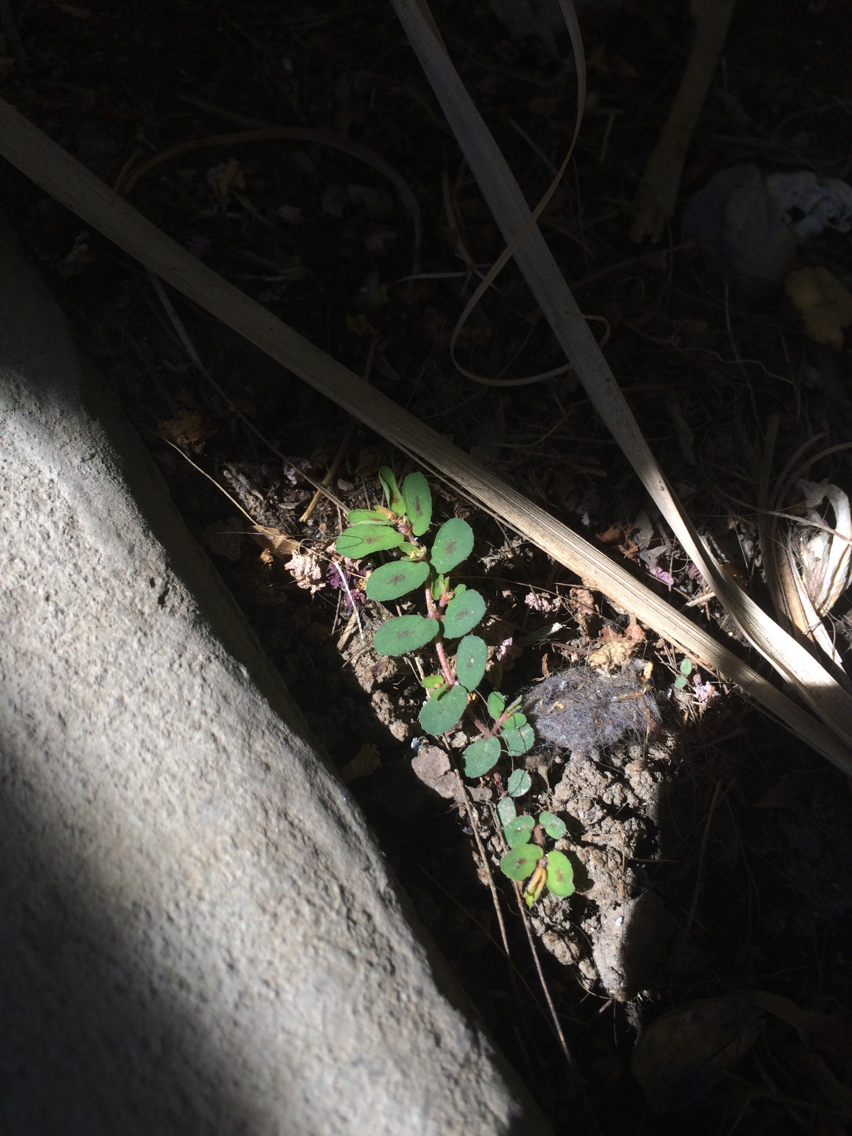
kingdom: Plantae
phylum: Tracheophyta
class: Magnoliopsida
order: Malpighiales
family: Euphorbiaceae
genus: Euphorbia
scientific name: Euphorbia maculata
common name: Spotted spurge
